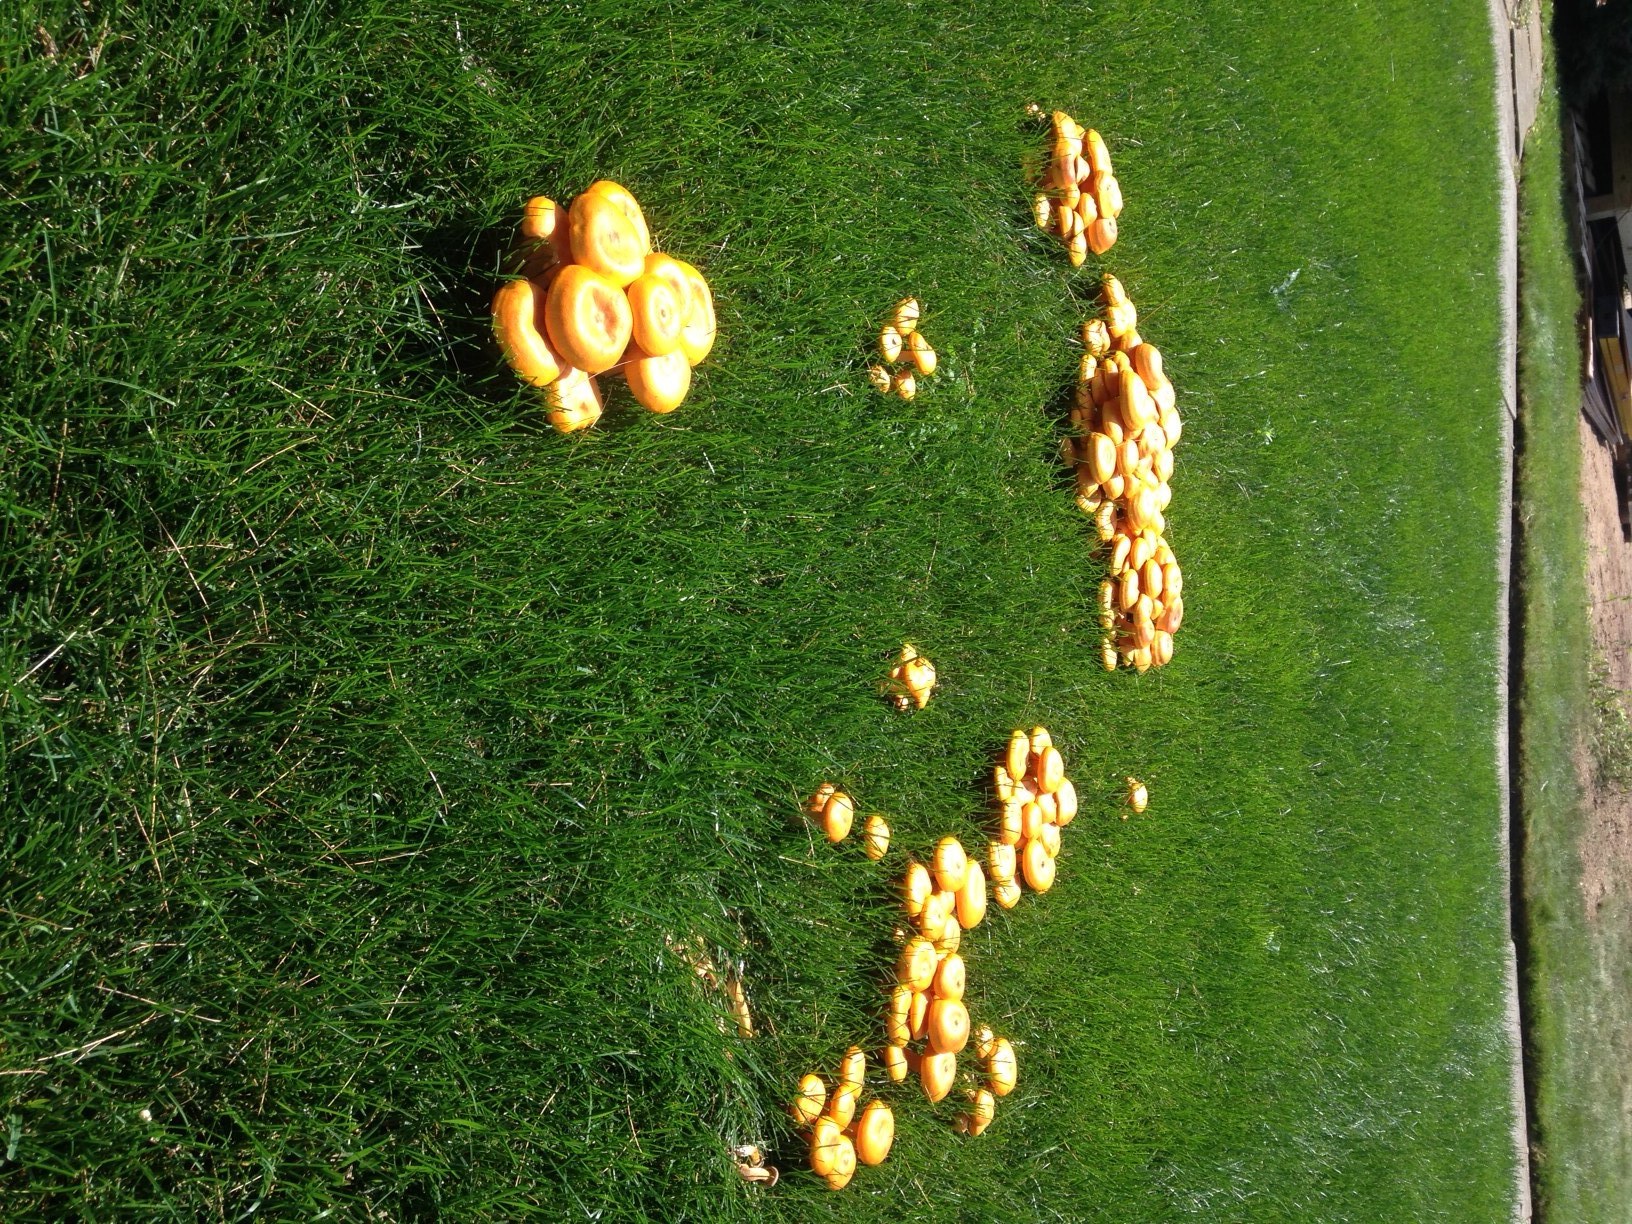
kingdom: Fungi
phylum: Basidiomycota
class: Agaricomycetes
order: Agaricales
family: Omphalotaceae
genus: Omphalotus
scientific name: Omphalotus illudens
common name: Jack o lantern
